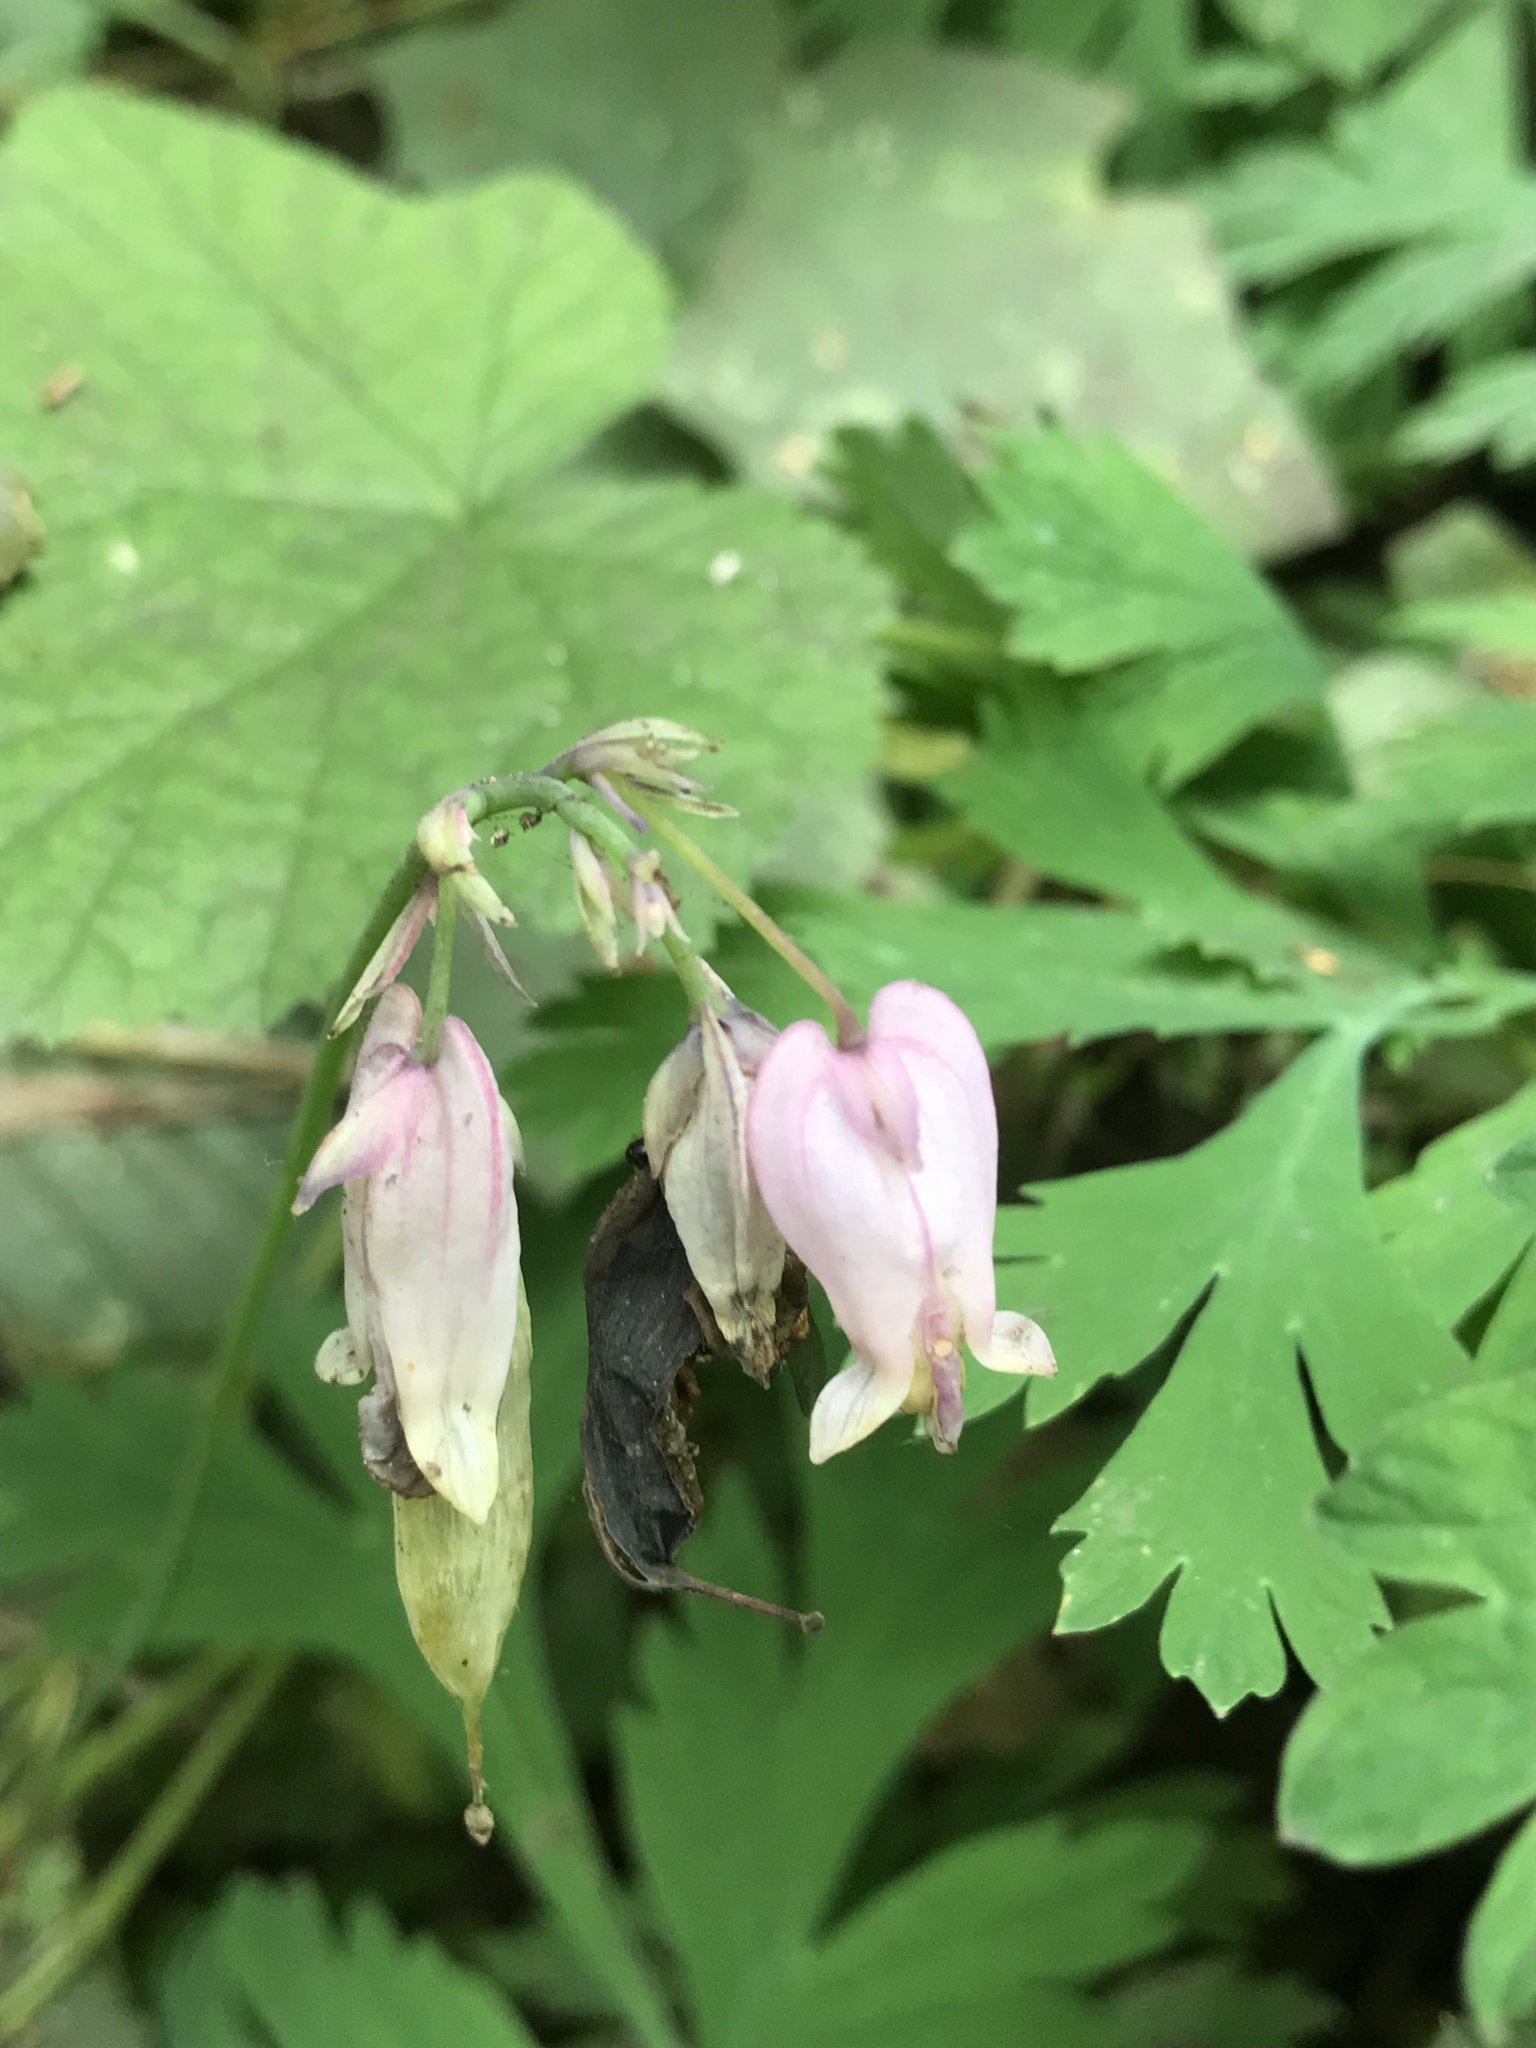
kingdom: Plantae
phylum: Tracheophyta
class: Magnoliopsida
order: Ranunculales
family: Papaveraceae
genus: Dicentra
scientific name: Dicentra formosa
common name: Bleeding-heart
